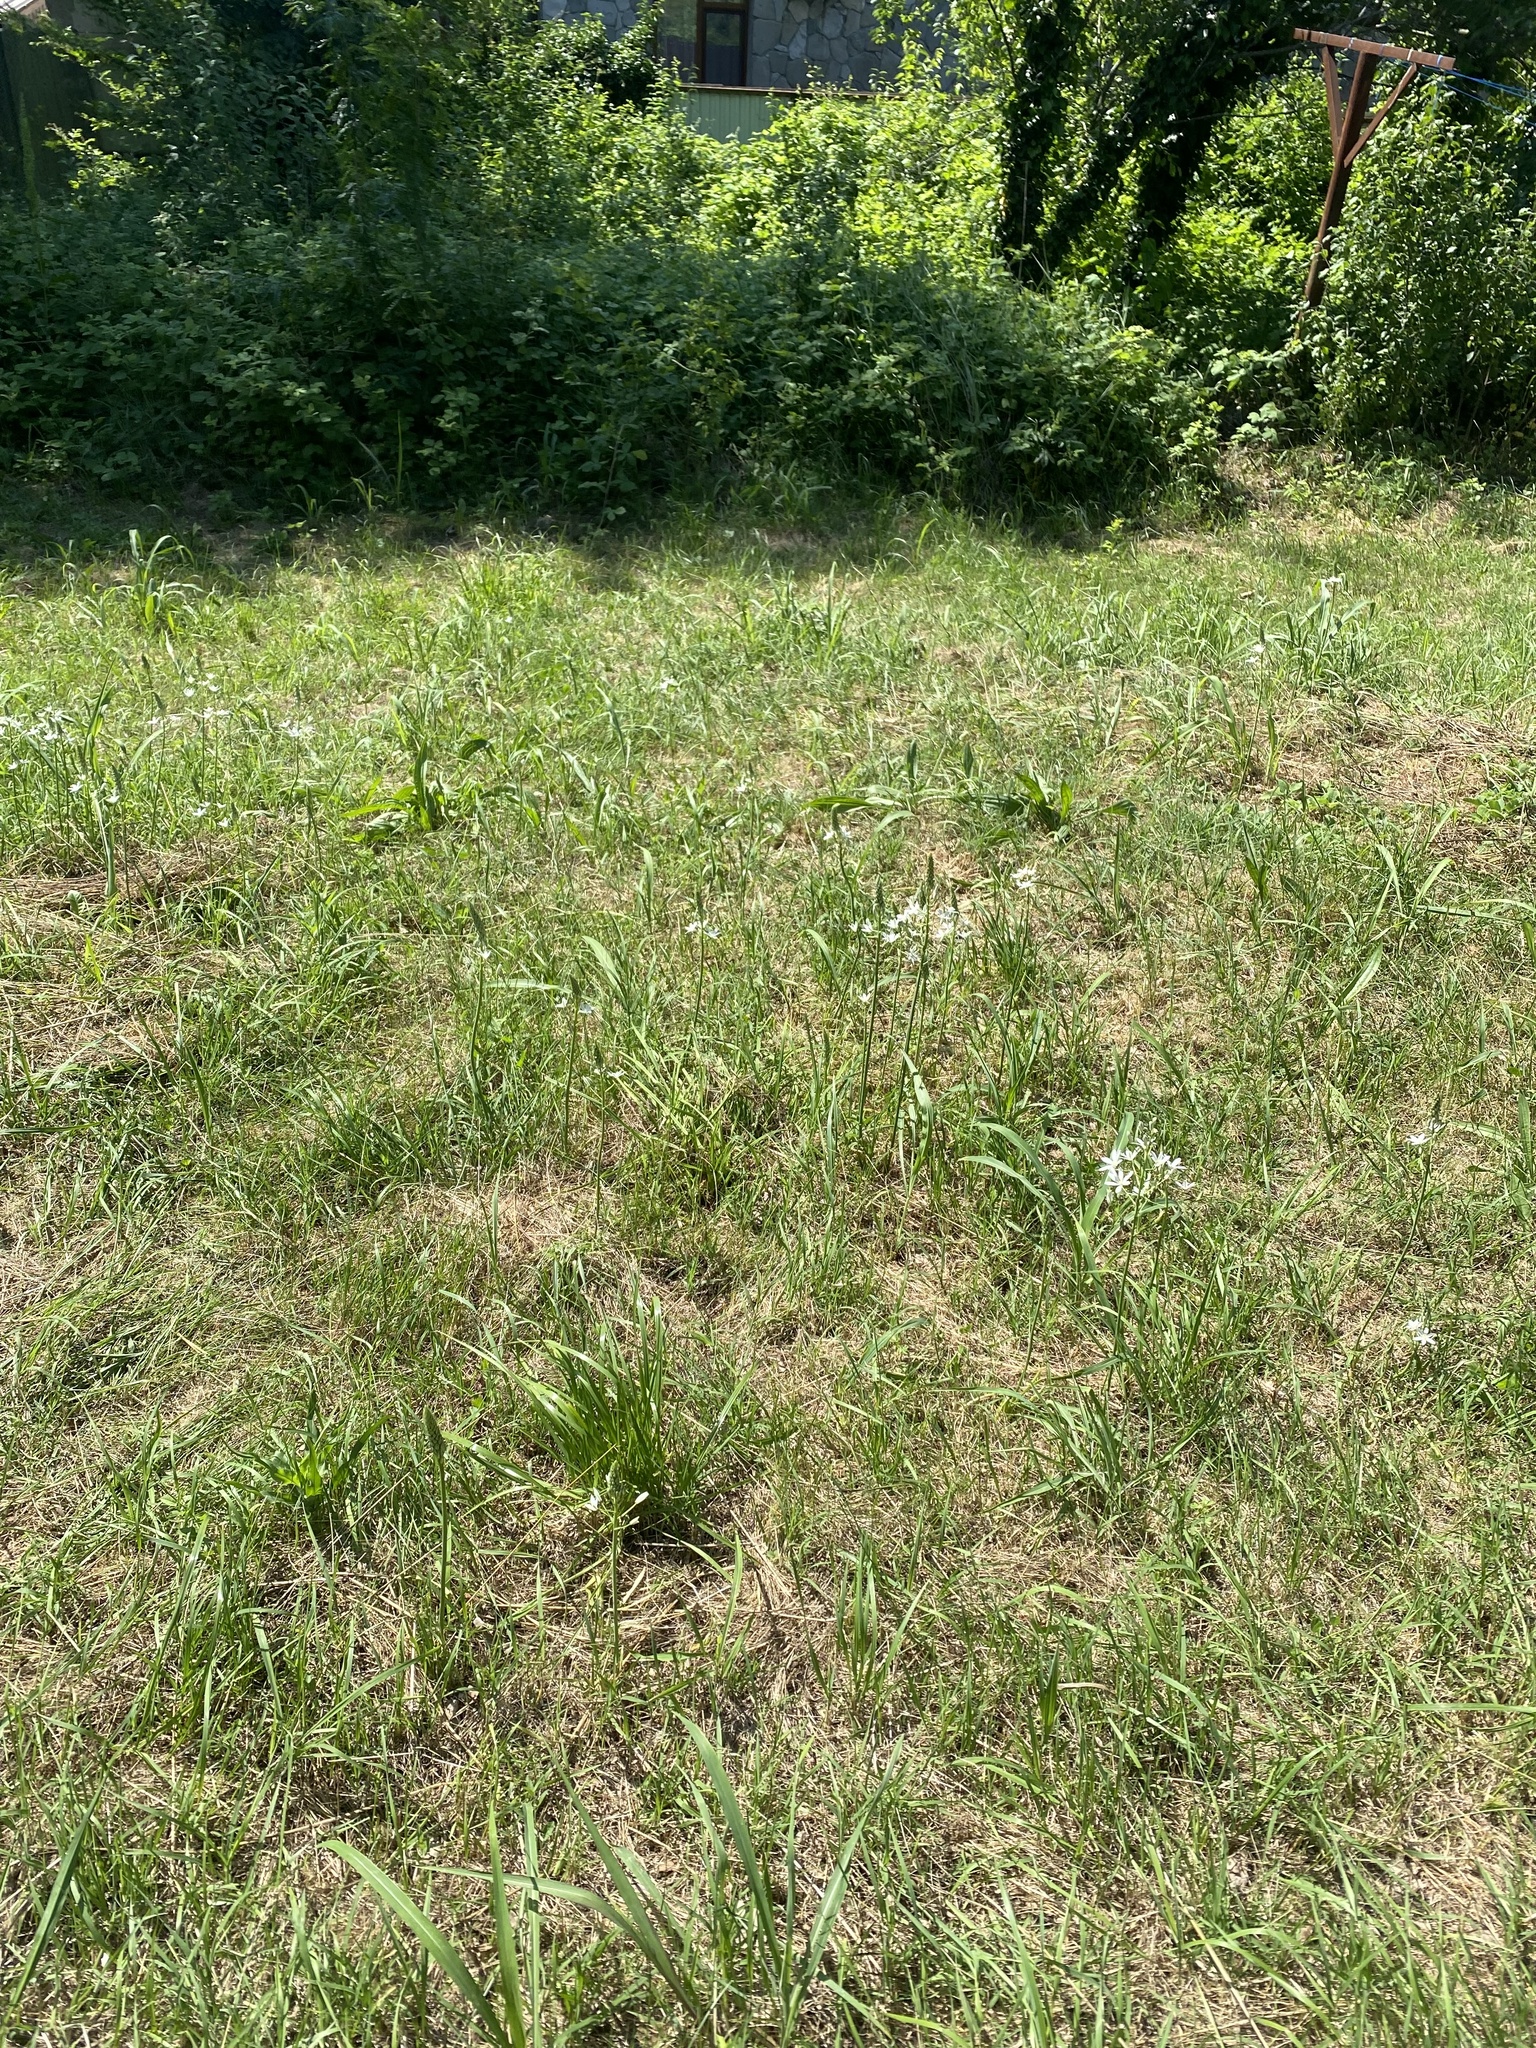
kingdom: Plantae
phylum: Tracheophyta
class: Liliopsida
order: Asparagales
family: Asparagaceae
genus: Ornithogalum
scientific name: Ornithogalum ponticum
